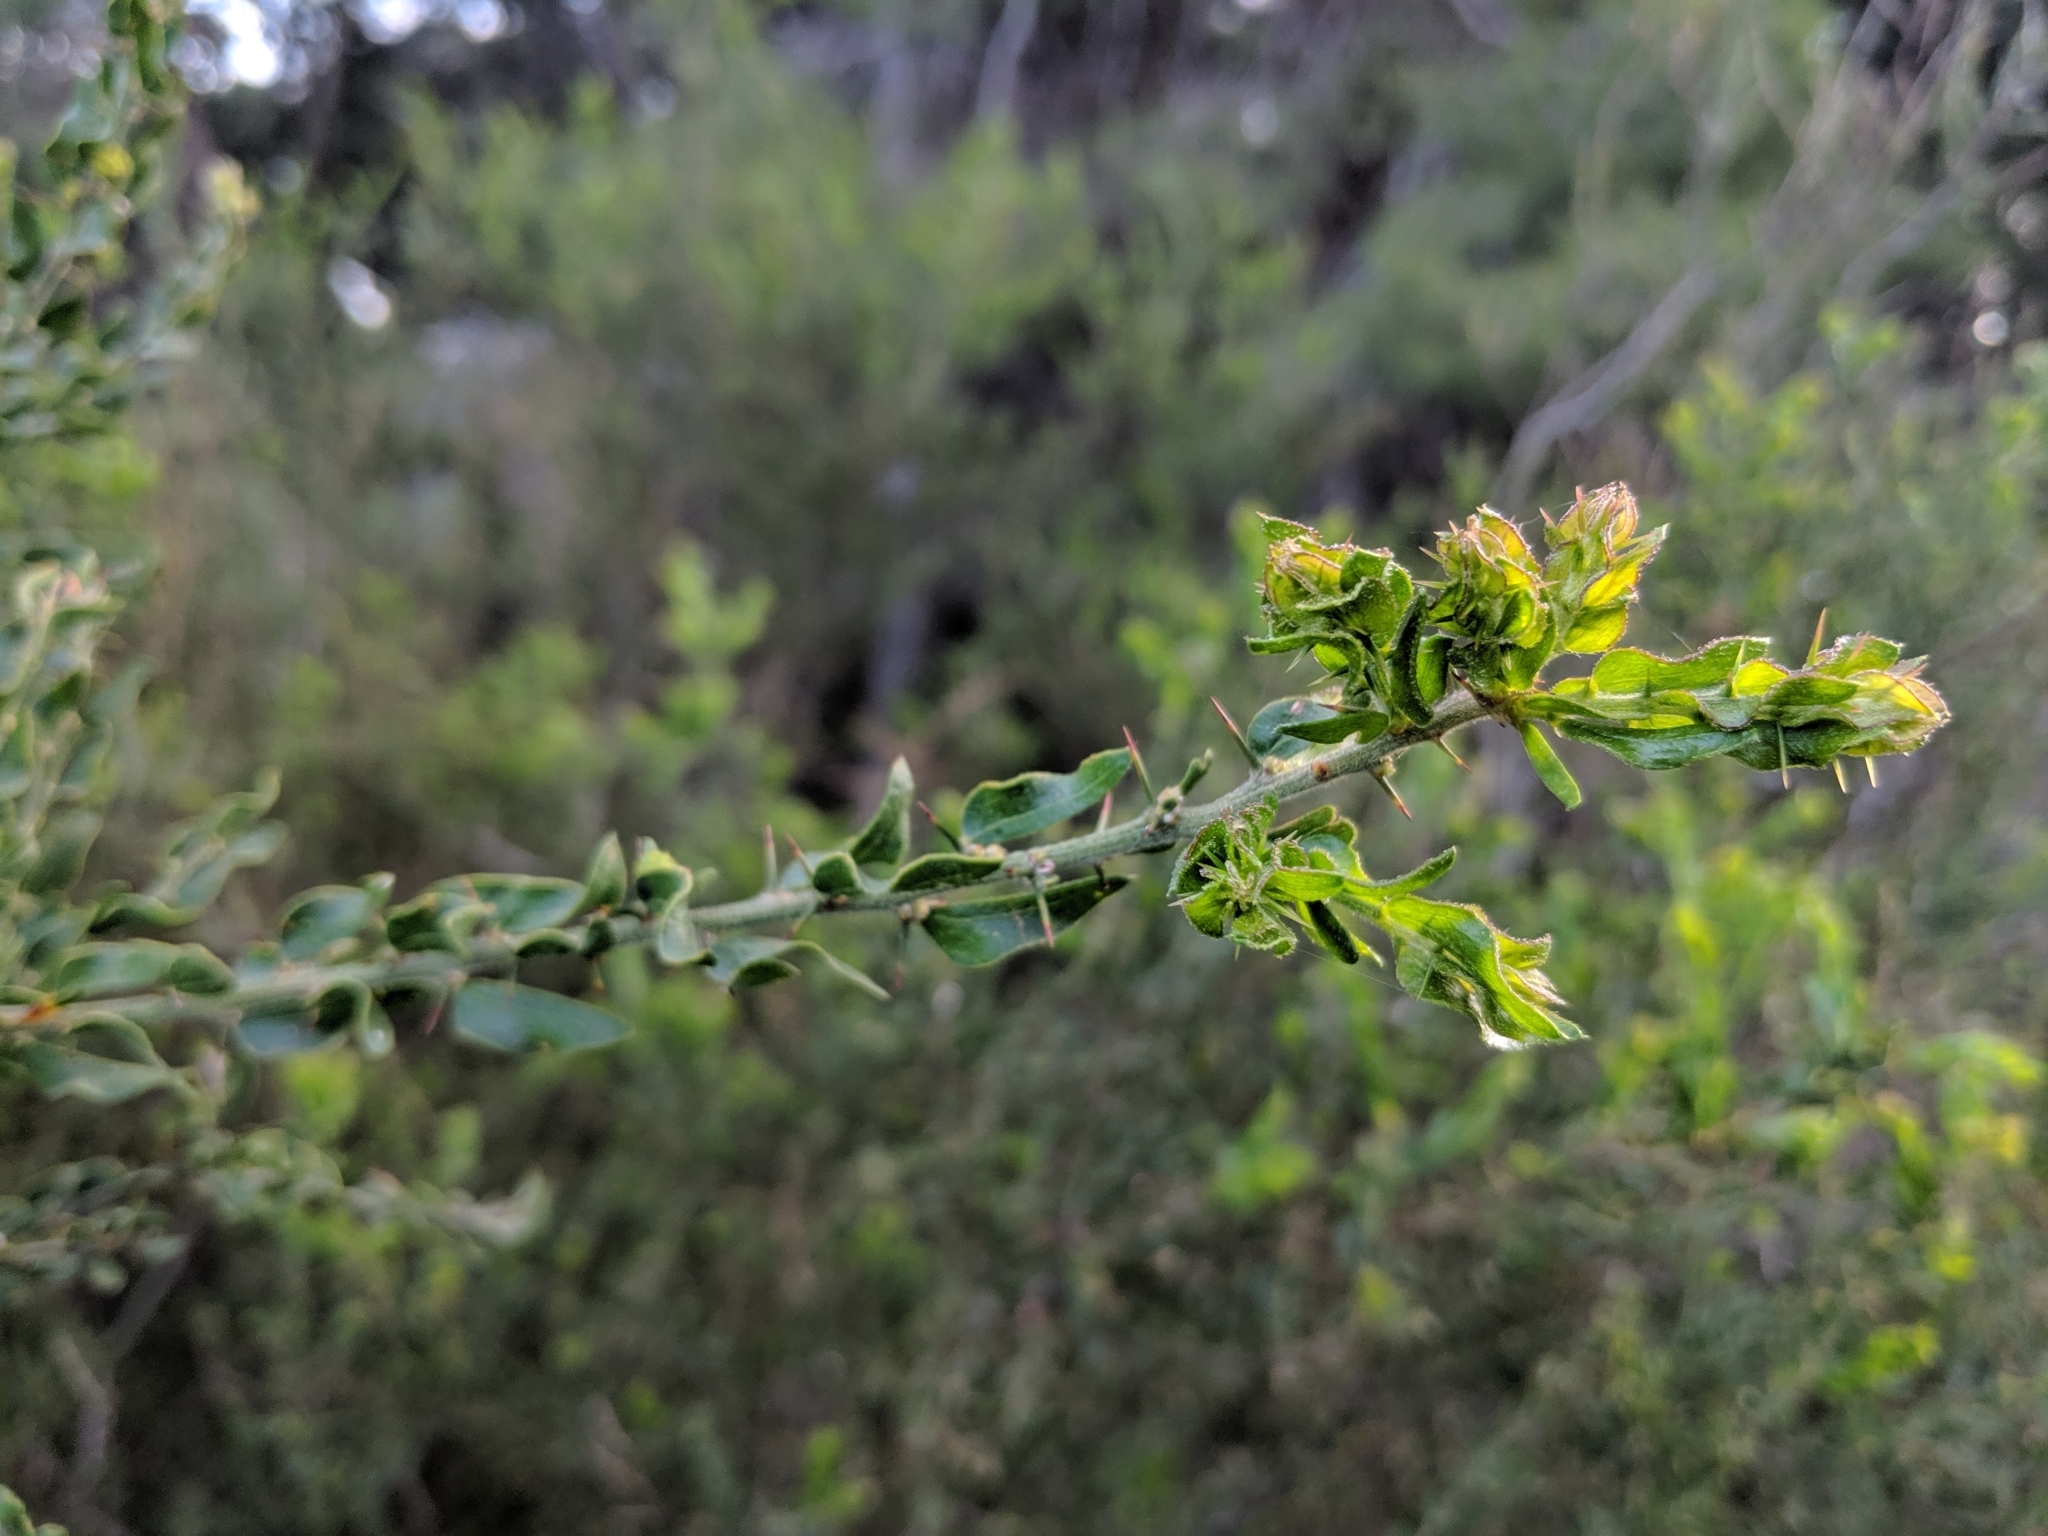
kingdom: Plantae
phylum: Tracheophyta
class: Magnoliopsida
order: Fabales
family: Fabaceae
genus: Acacia
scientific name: Acacia paradoxa
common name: Paradox acacia
